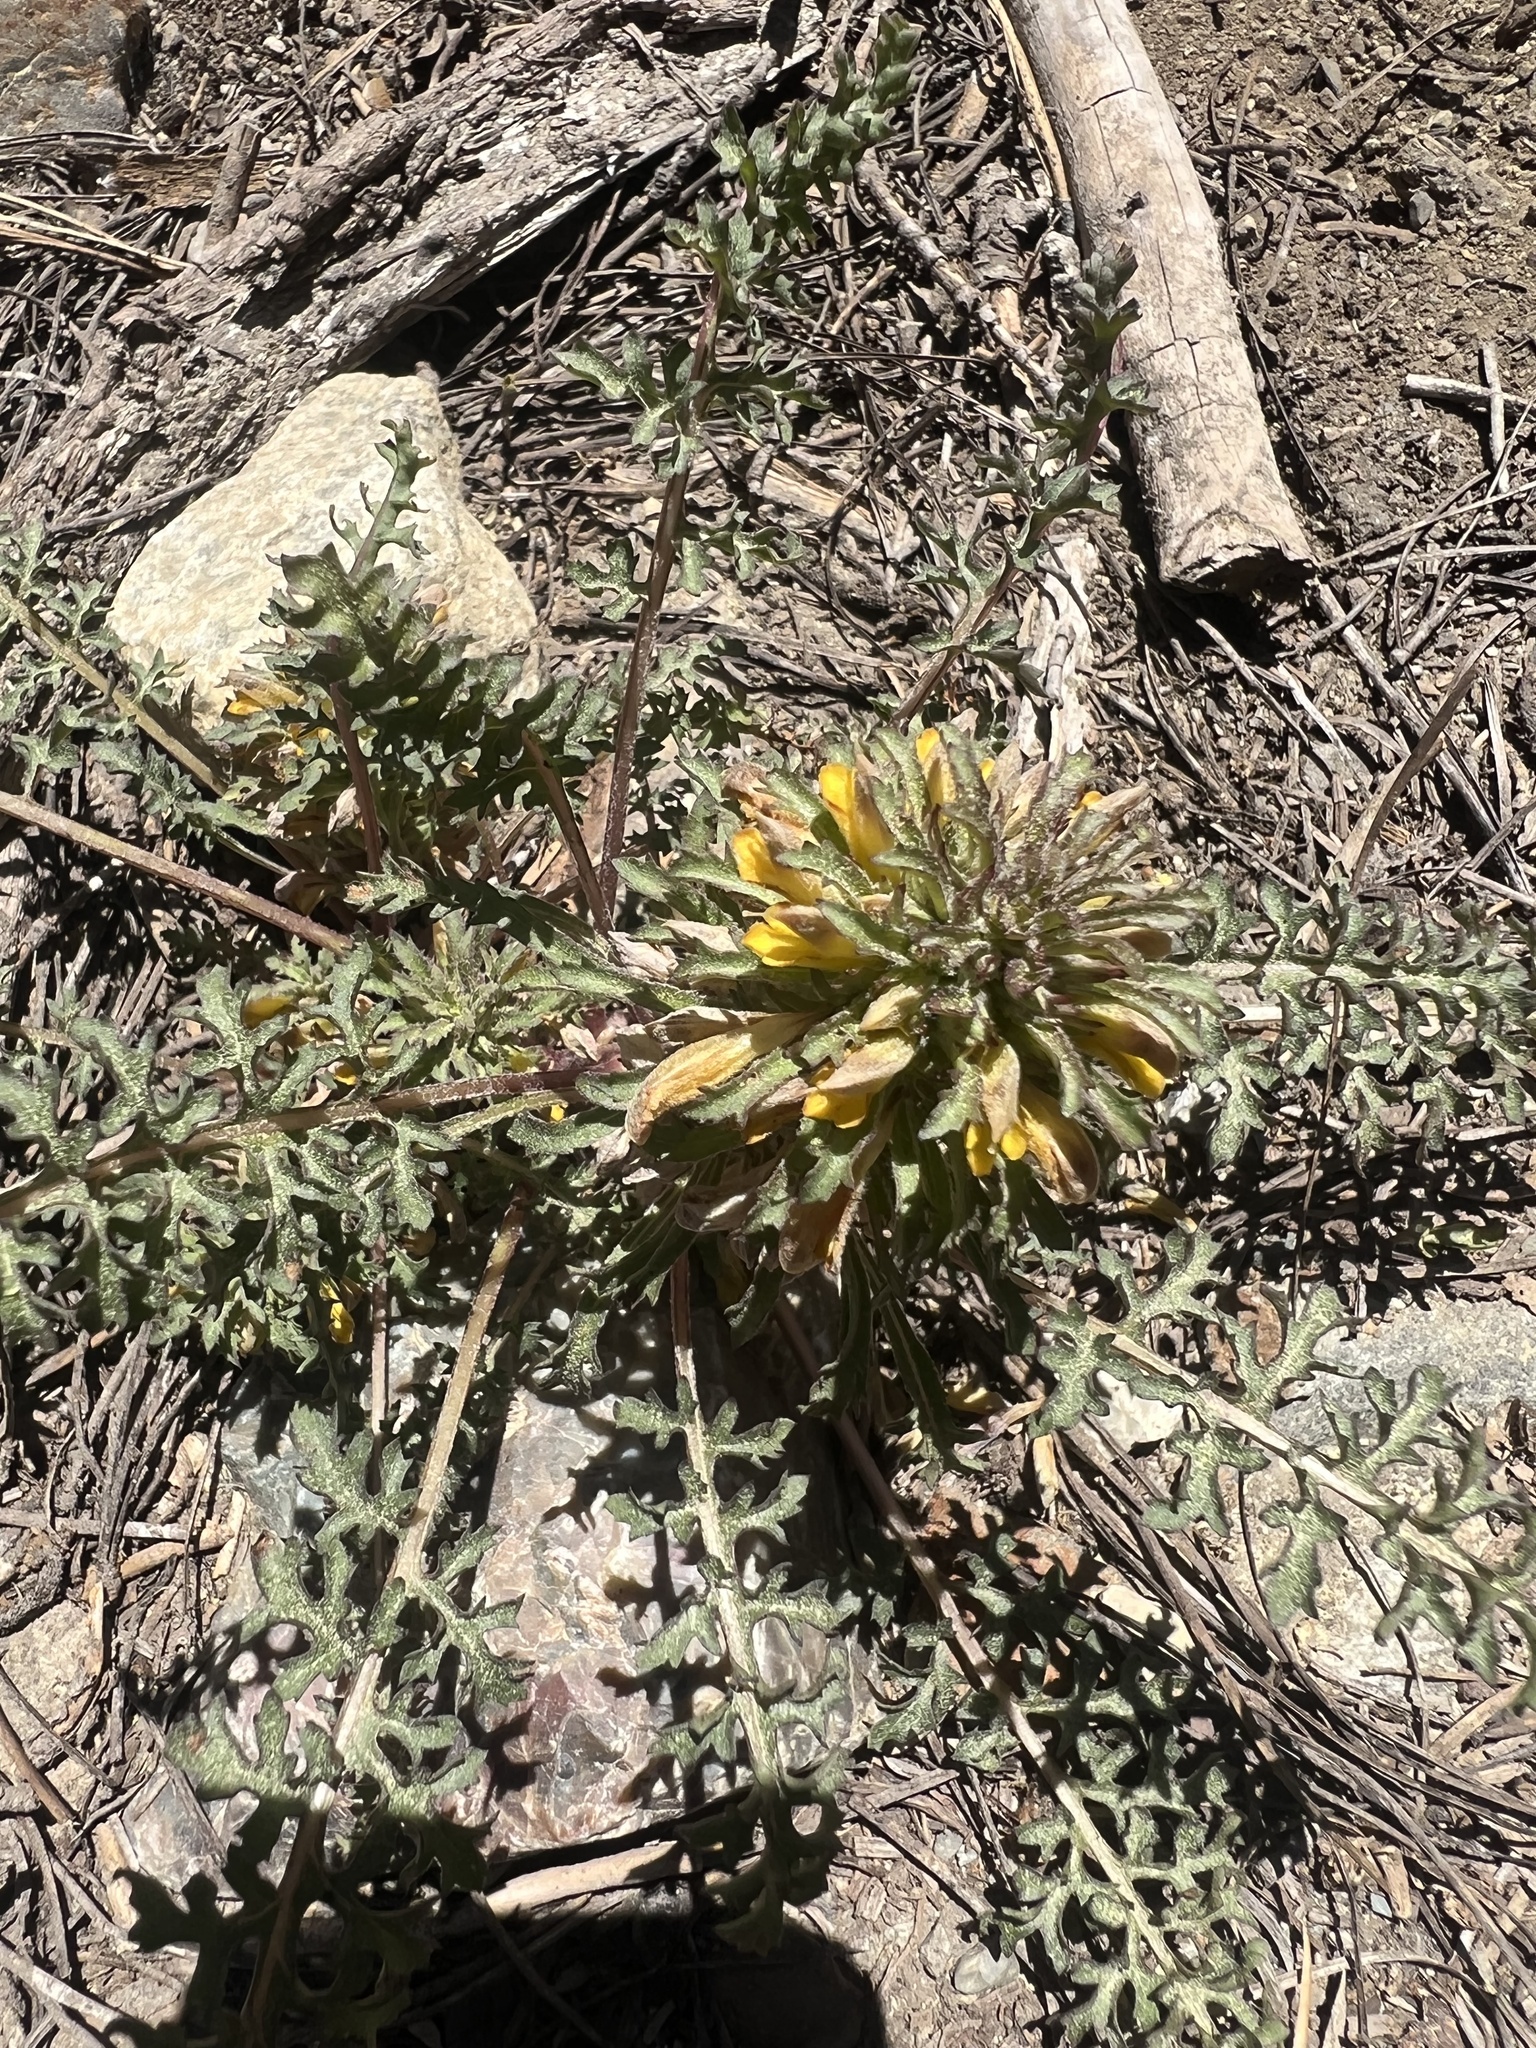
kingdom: Plantae
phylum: Tracheophyta
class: Magnoliopsida
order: Lamiales
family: Orobanchaceae
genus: Pedicularis
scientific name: Pedicularis semibarbata
